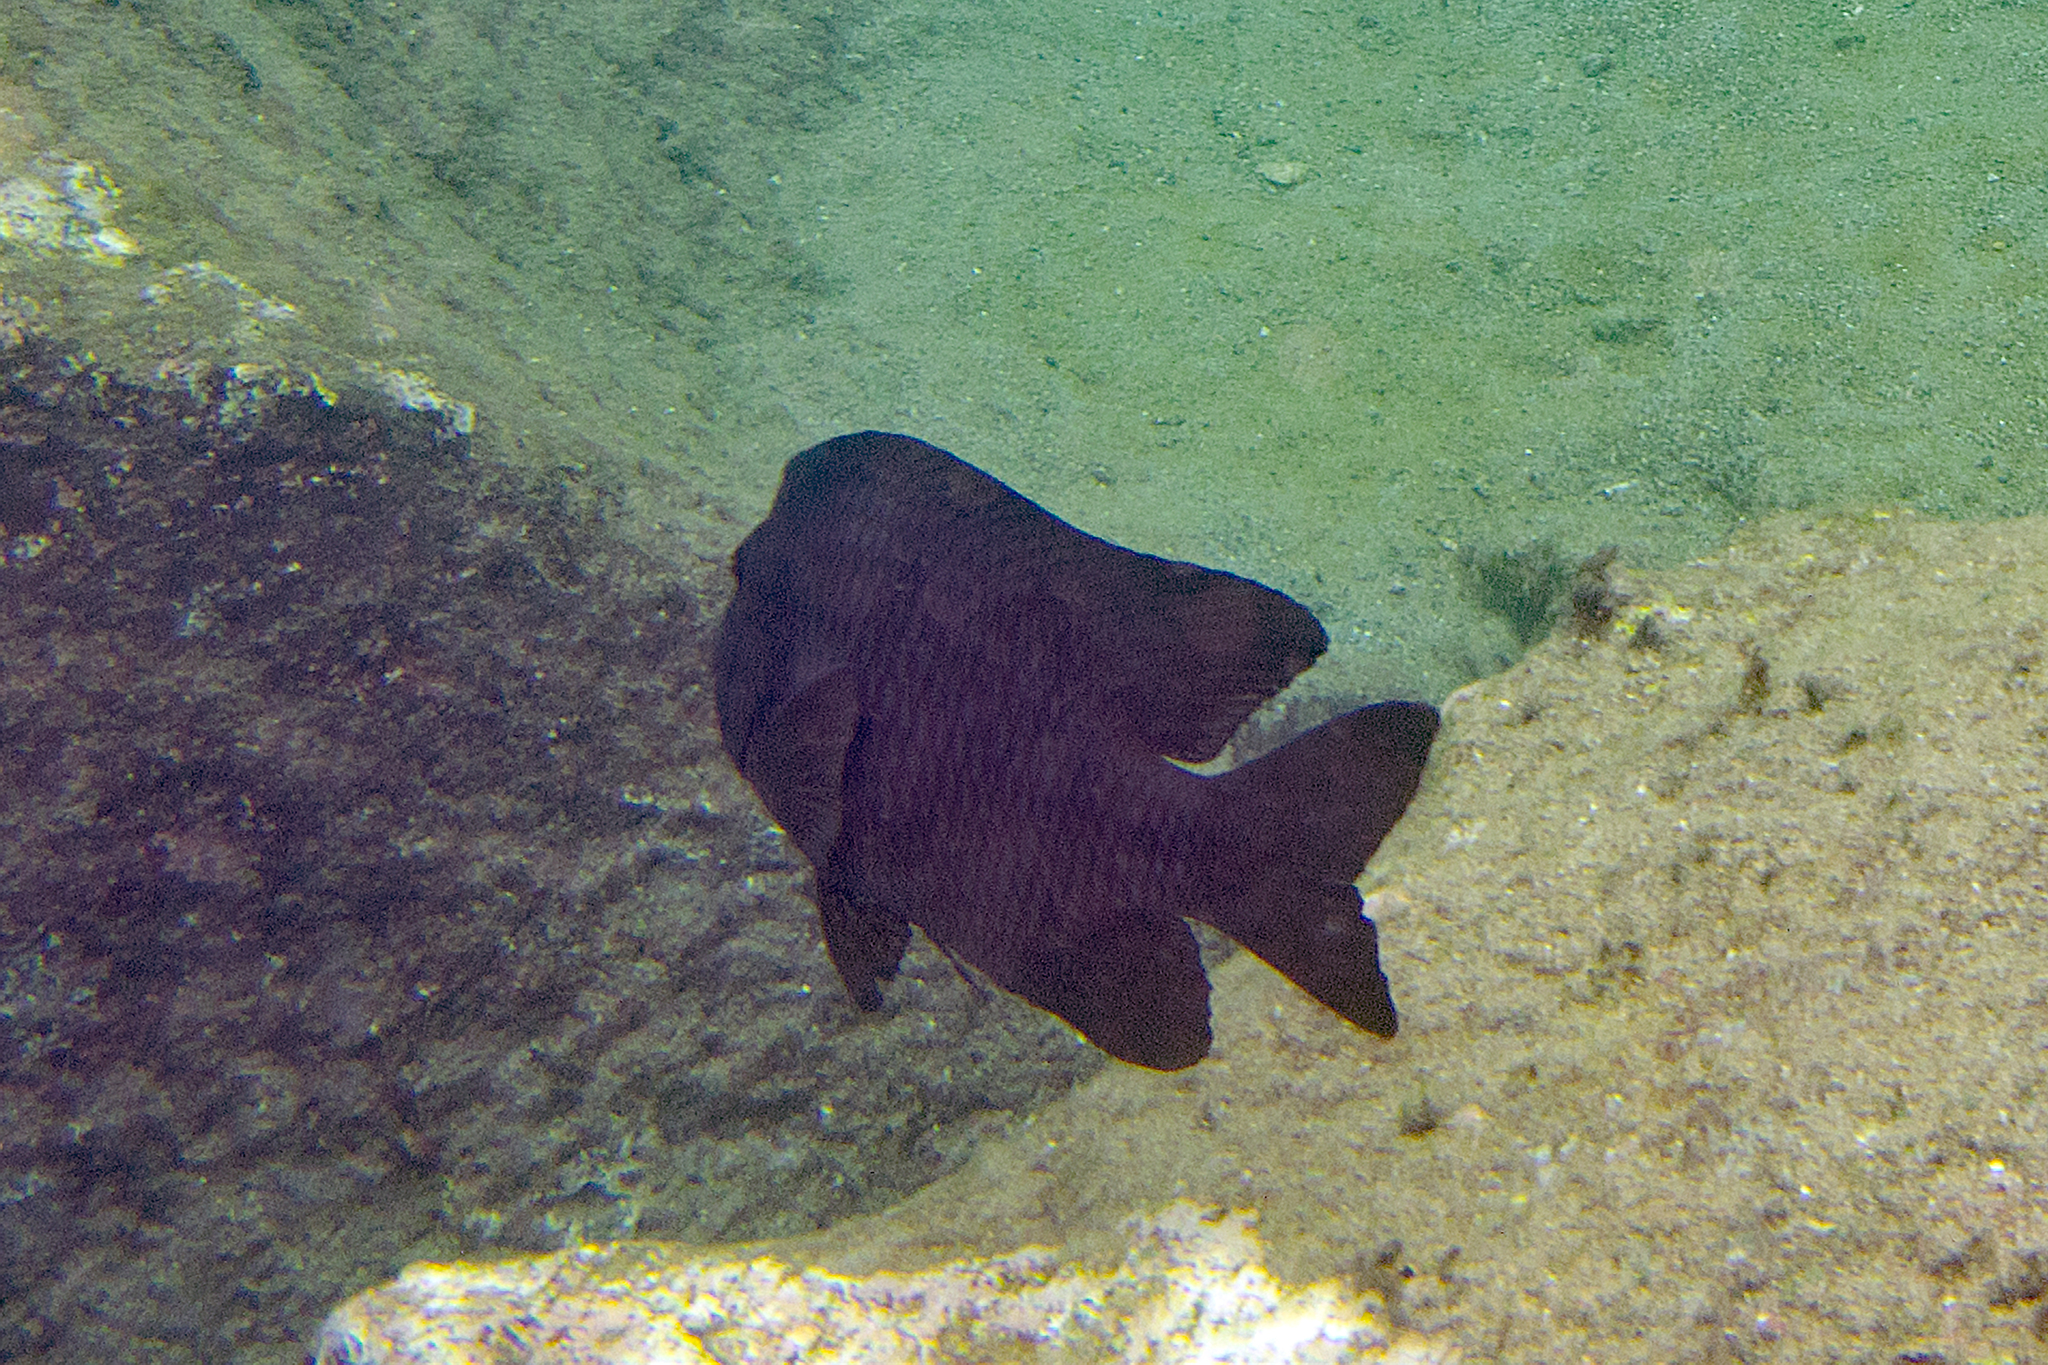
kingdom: Animalia
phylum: Chordata
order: Perciformes
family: Pomacentridae
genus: Microspathodon
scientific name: Microspathodon bairdii
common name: Bumphead damselfish
